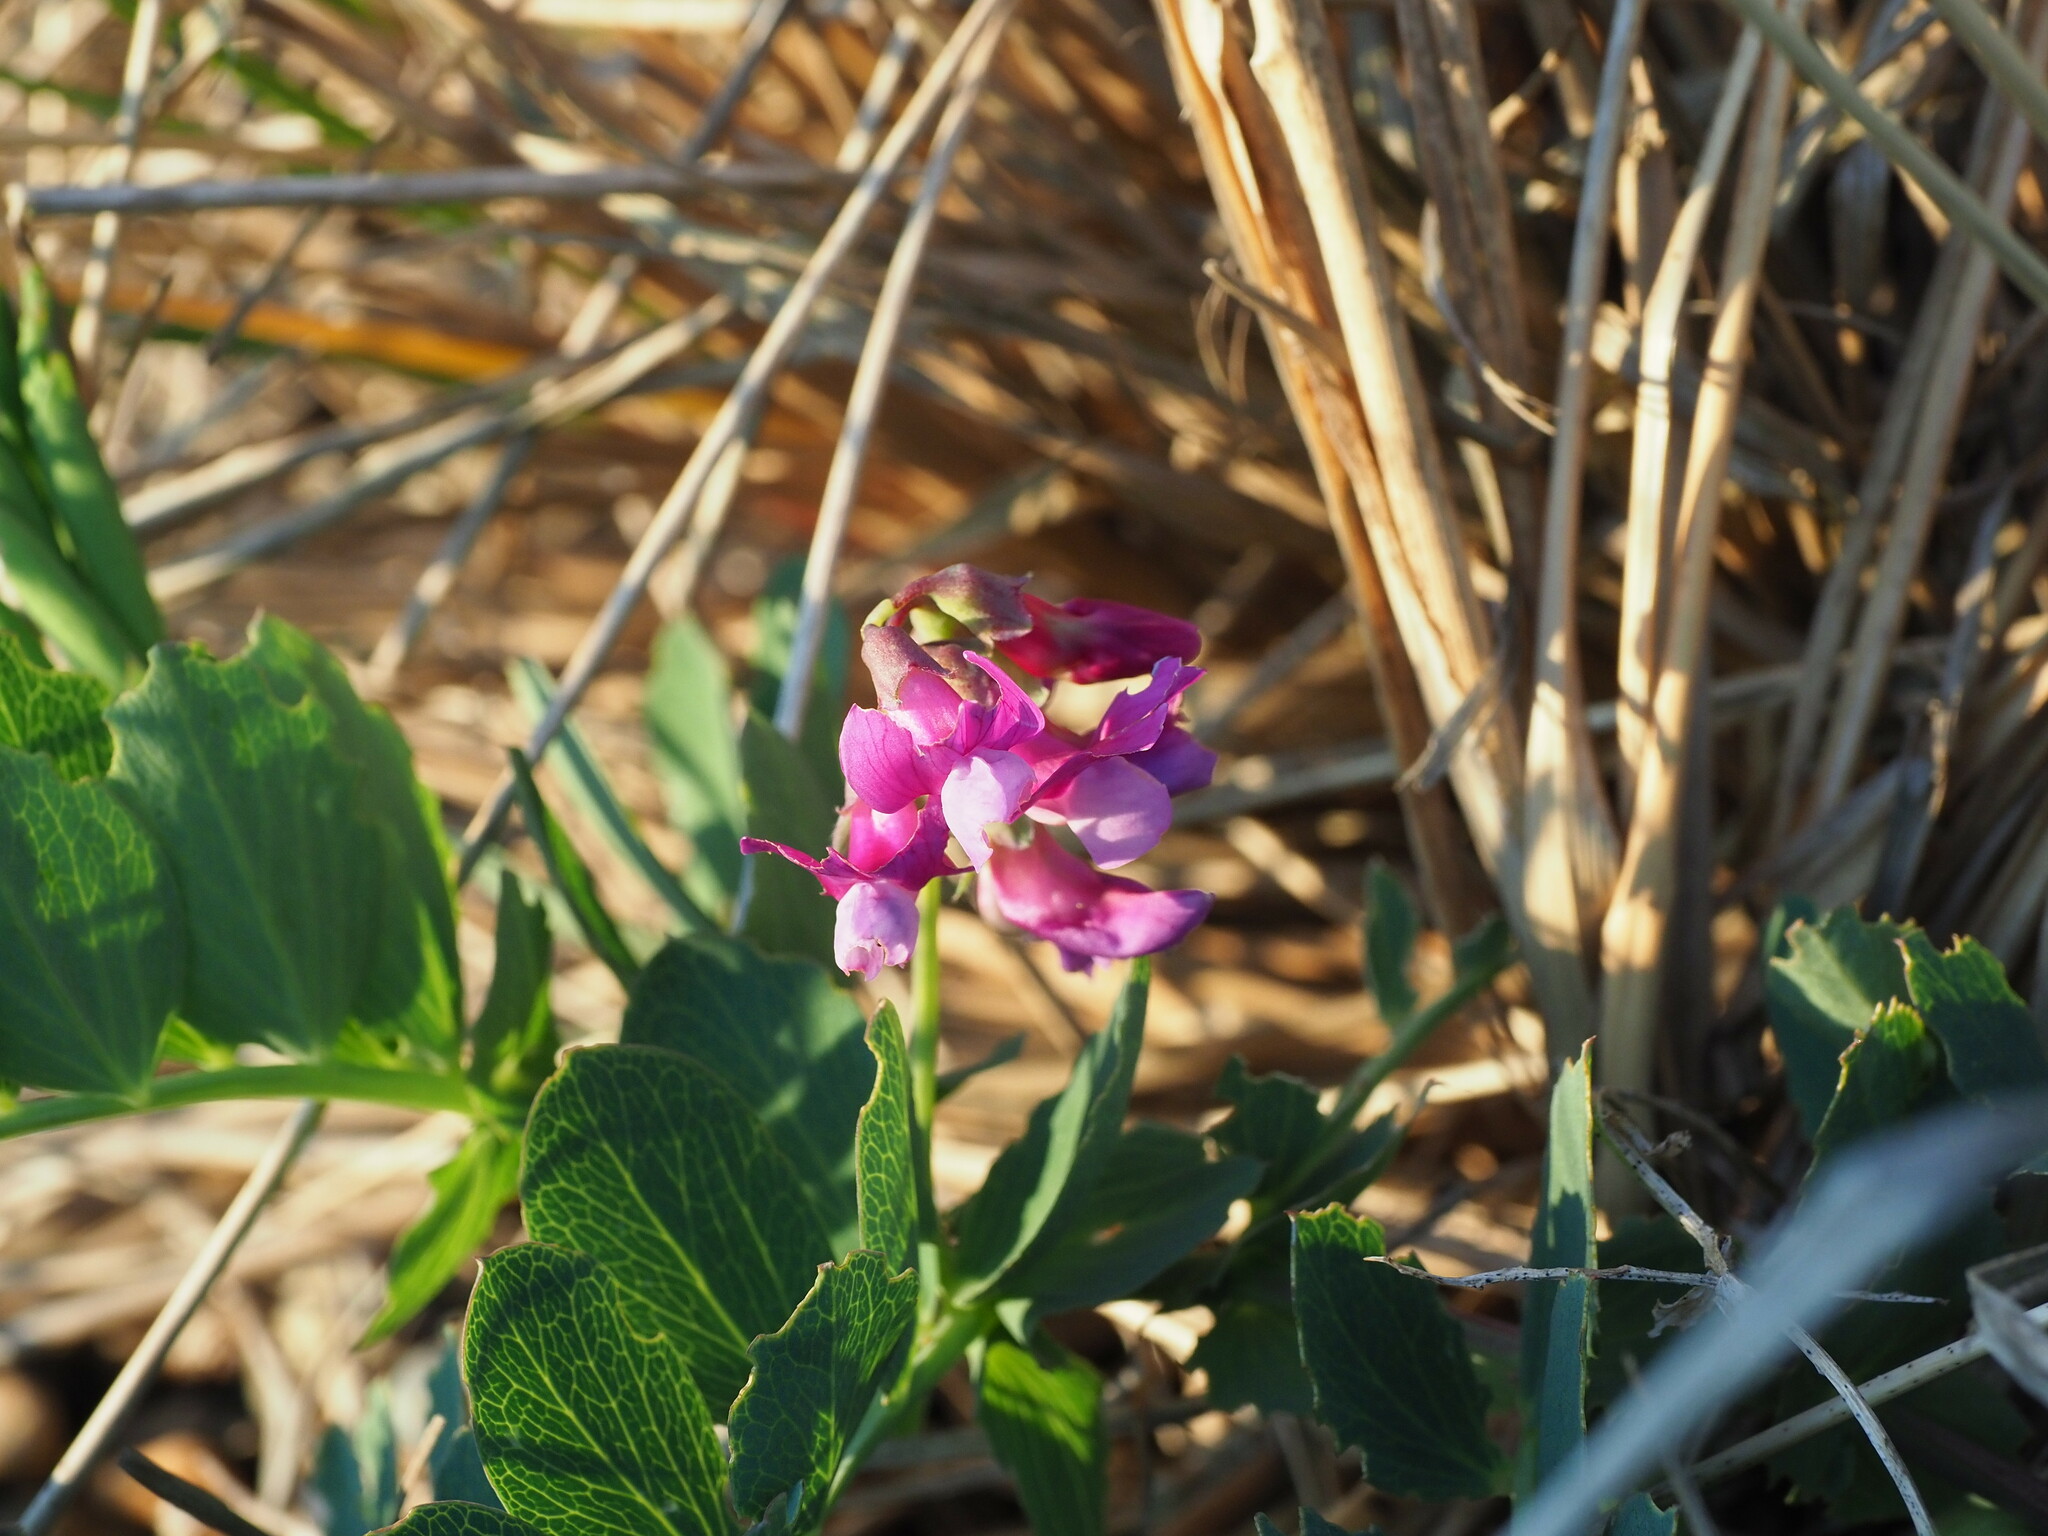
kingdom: Plantae
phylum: Tracheophyta
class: Magnoliopsida
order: Fabales
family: Fabaceae
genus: Lathyrus
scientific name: Lathyrus japonicus
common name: Sea pea
